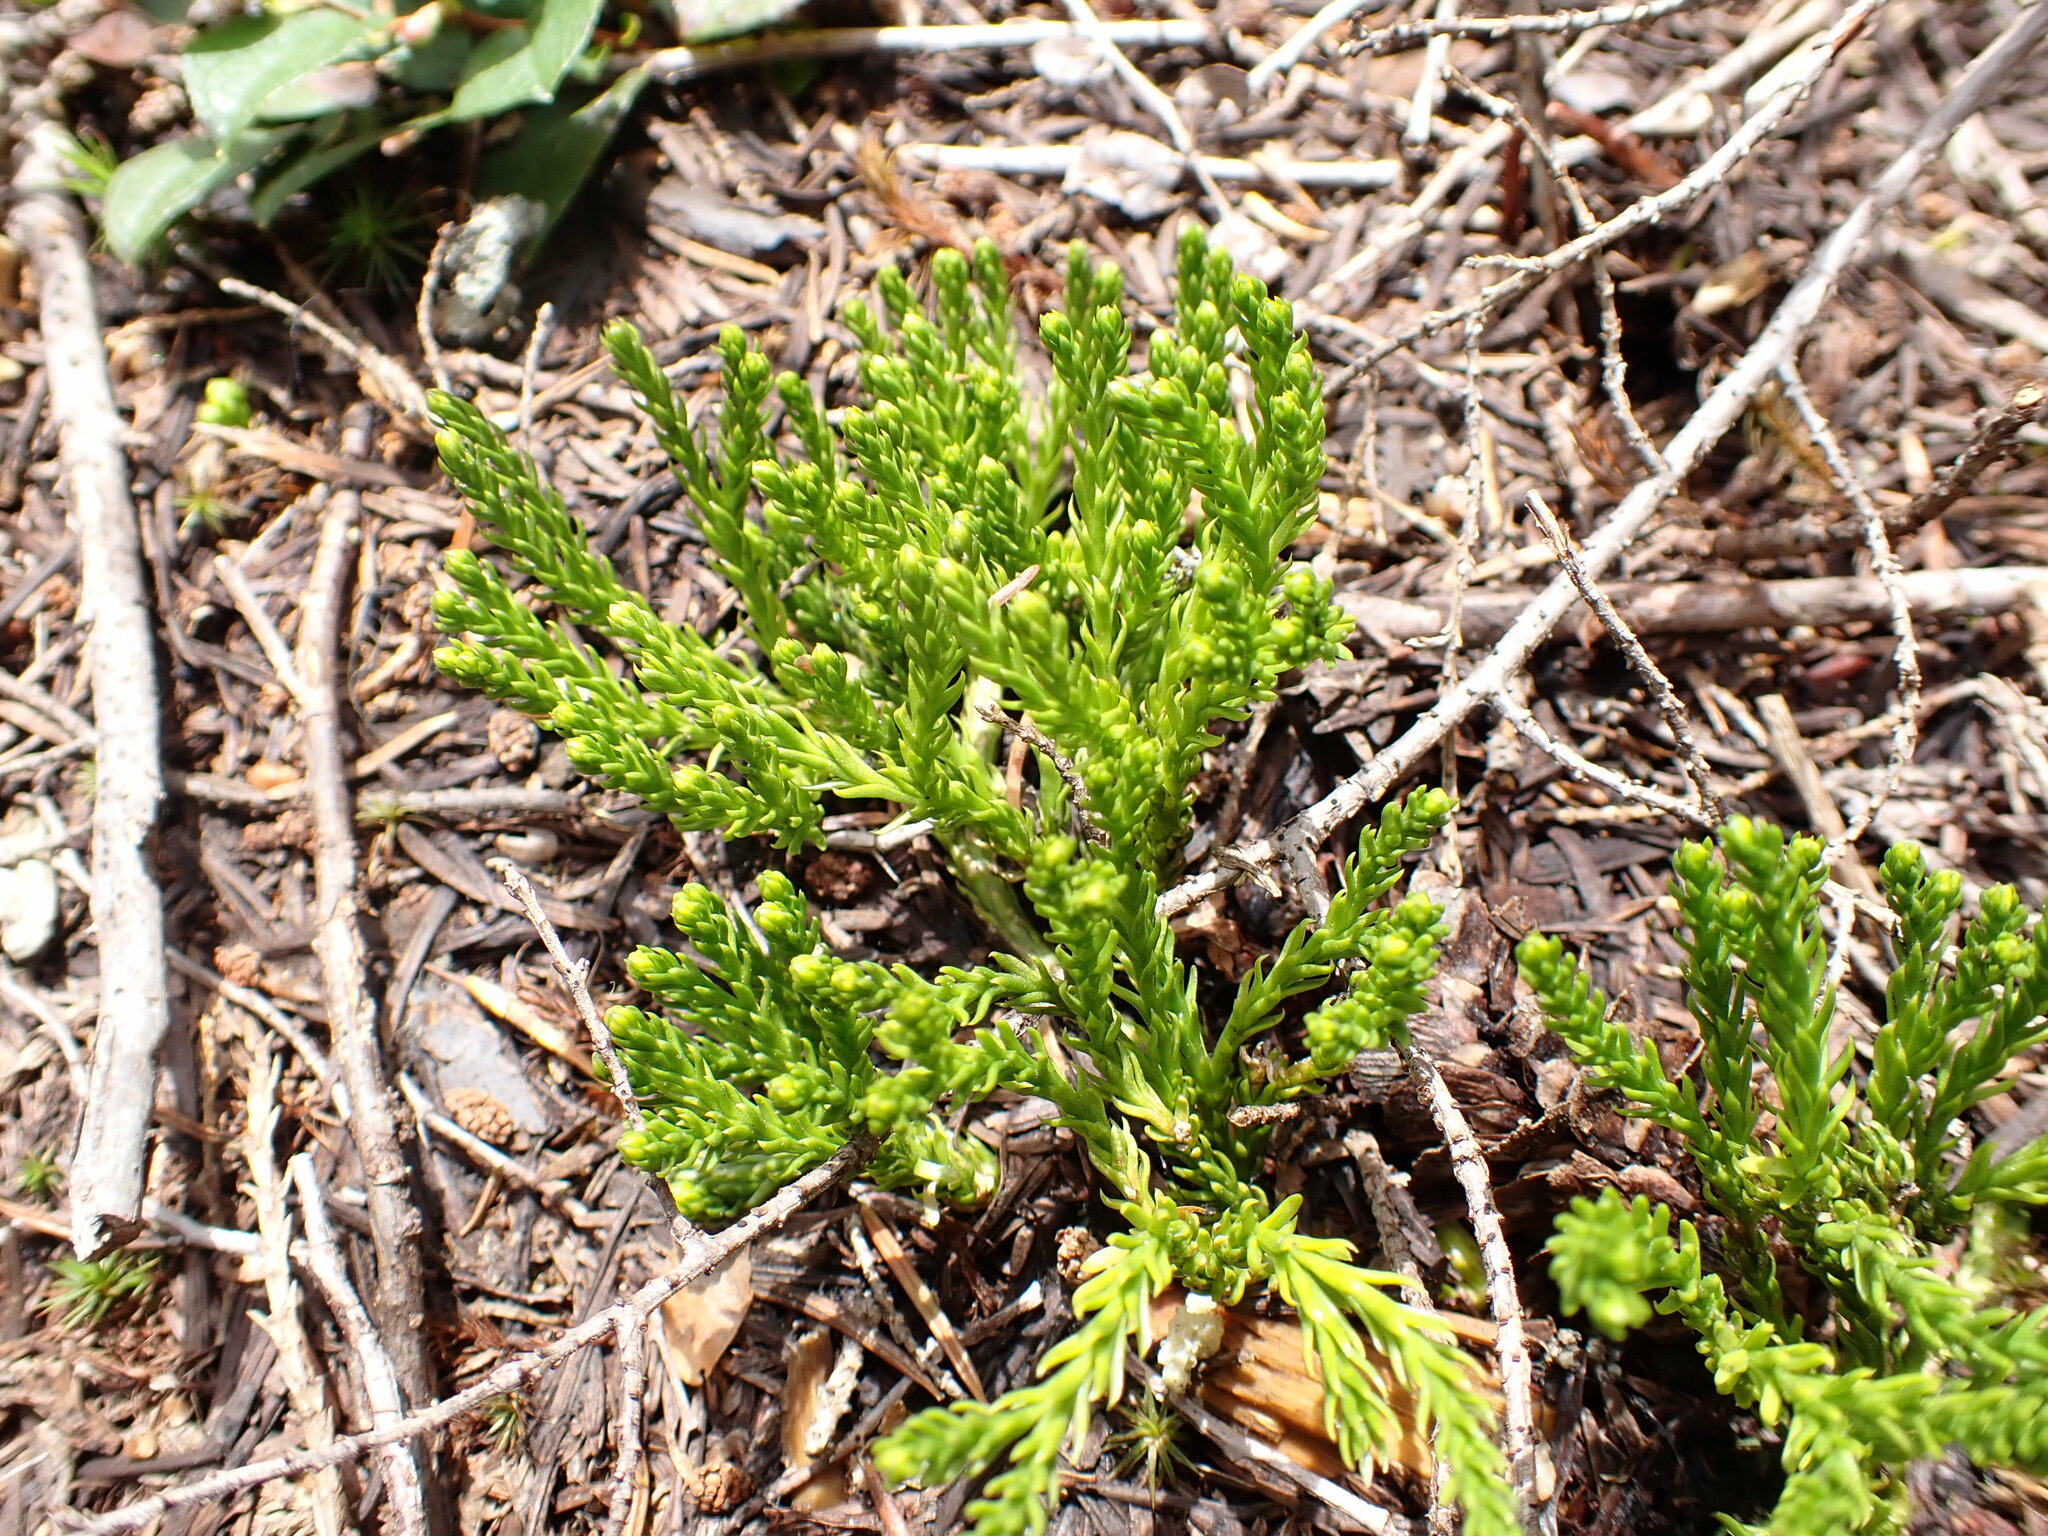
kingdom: Plantae
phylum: Tracheophyta
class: Lycopodiopsida
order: Lycopodiales
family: Lycopodiaceae
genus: Diphasiastrum
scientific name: Diphasiastrum sitchense
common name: Alaska clubmoss
